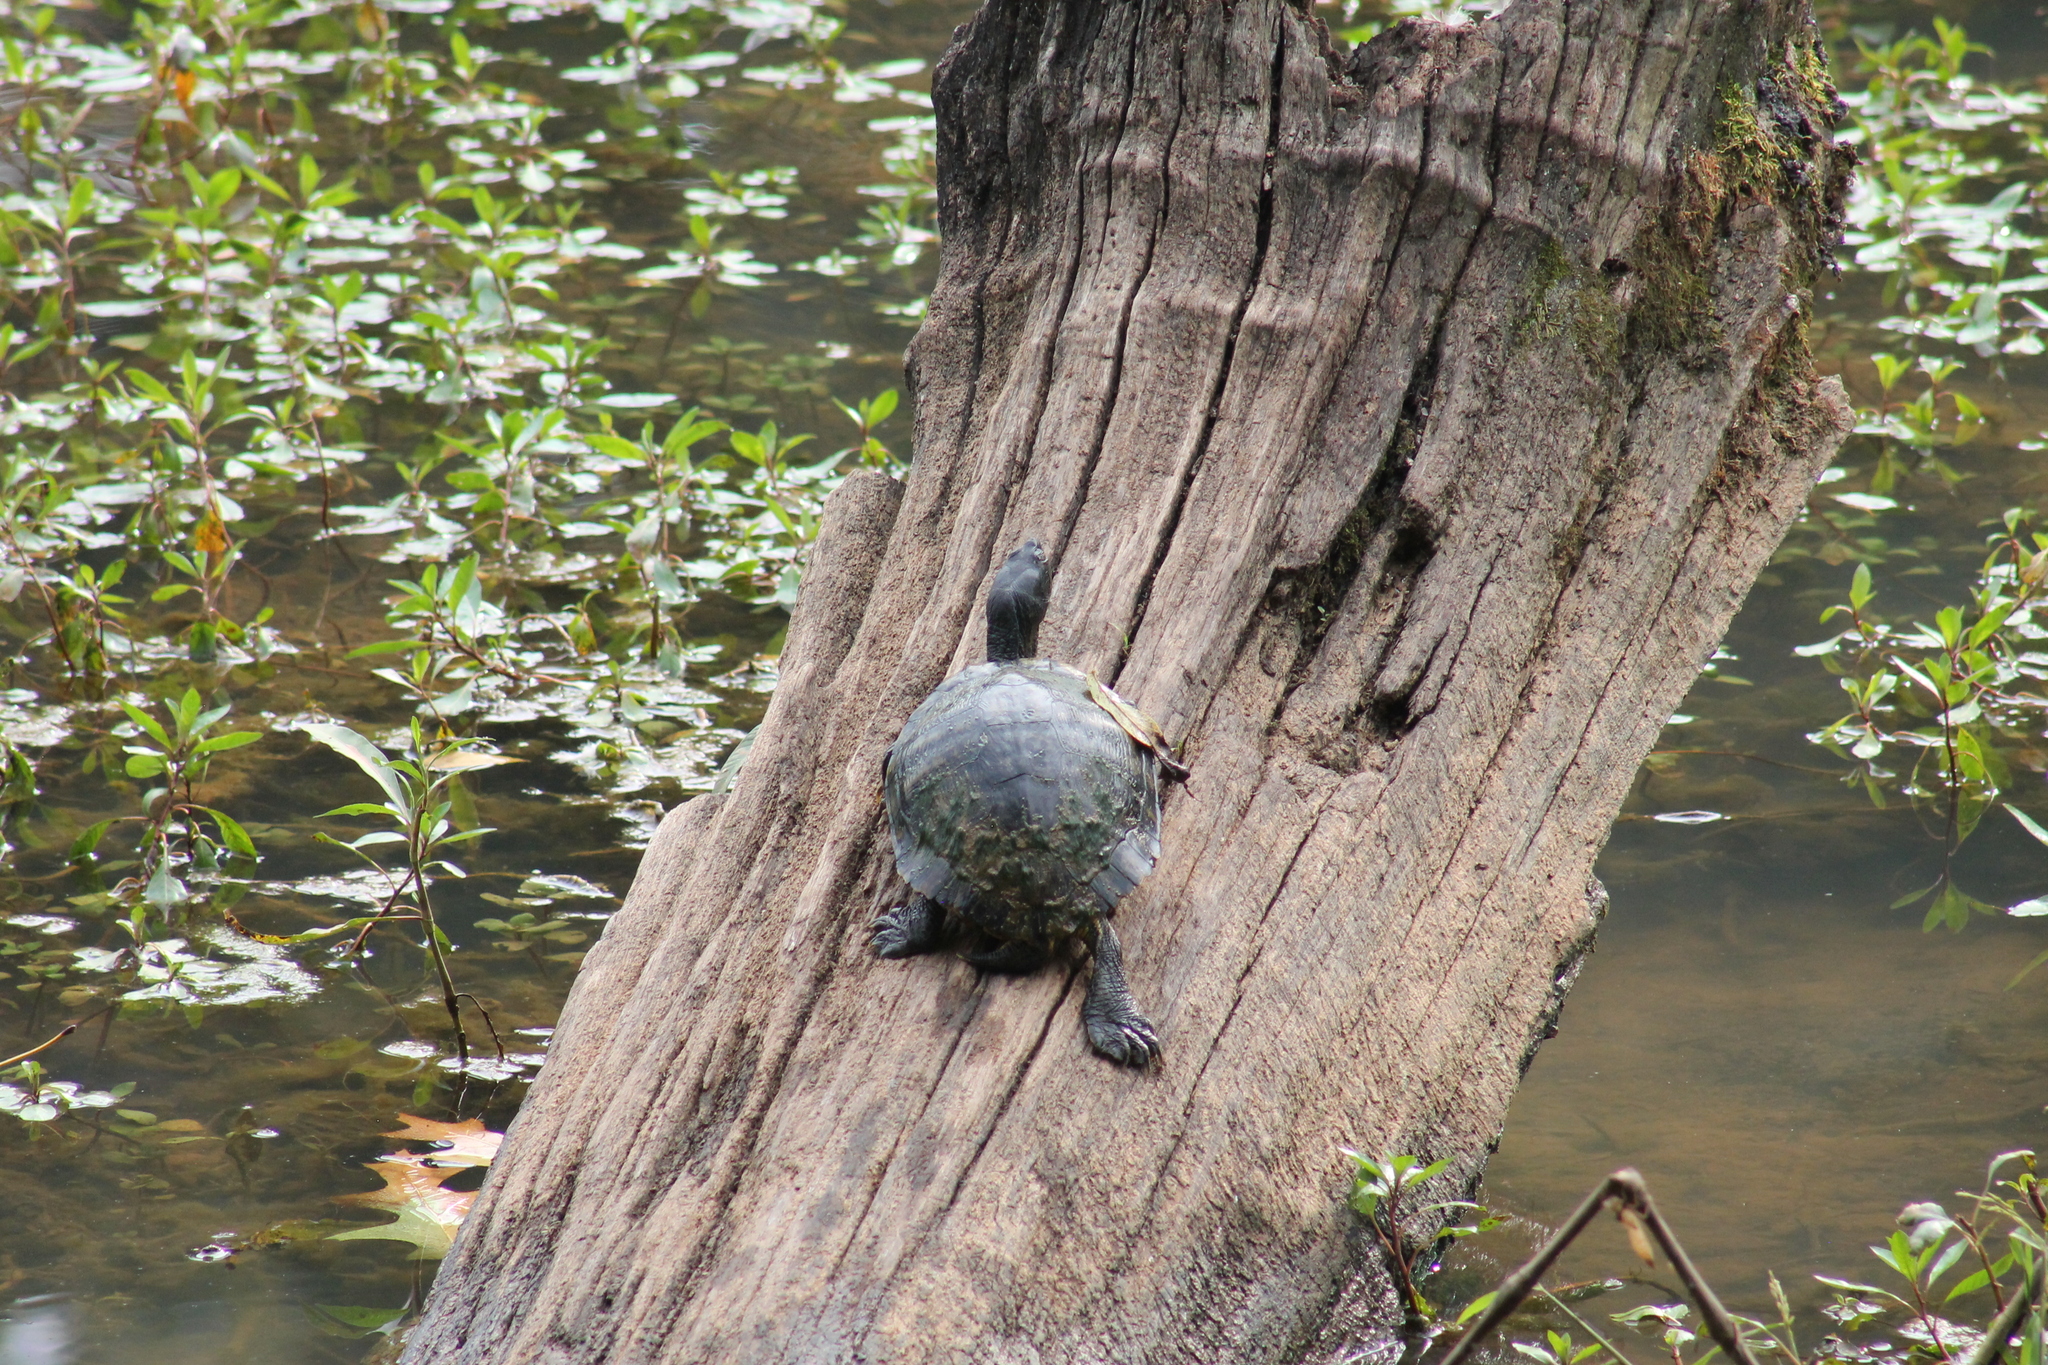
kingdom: Animalia
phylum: Chordata
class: Testudines
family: Emydidae
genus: Trachemys
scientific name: Trachemys scripta
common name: Slider
